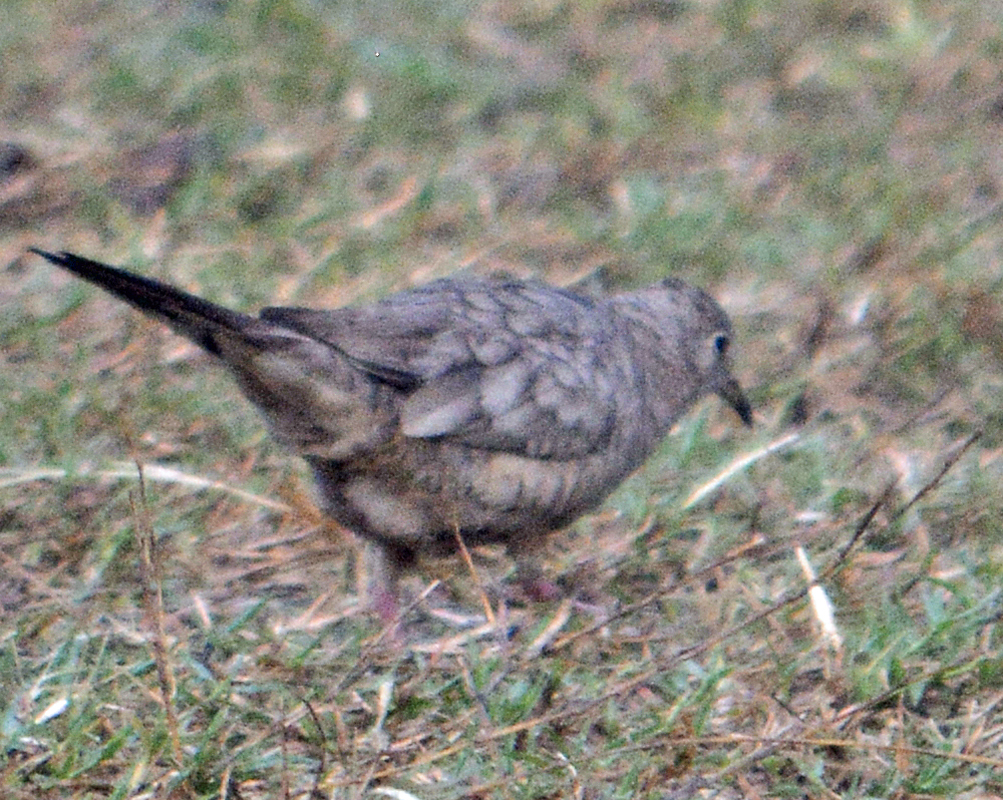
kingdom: Animalia
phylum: Chordata
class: Aves
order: Columbiformes
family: Columbidae
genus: Columbina
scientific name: Columbina inca
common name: Inca dove
